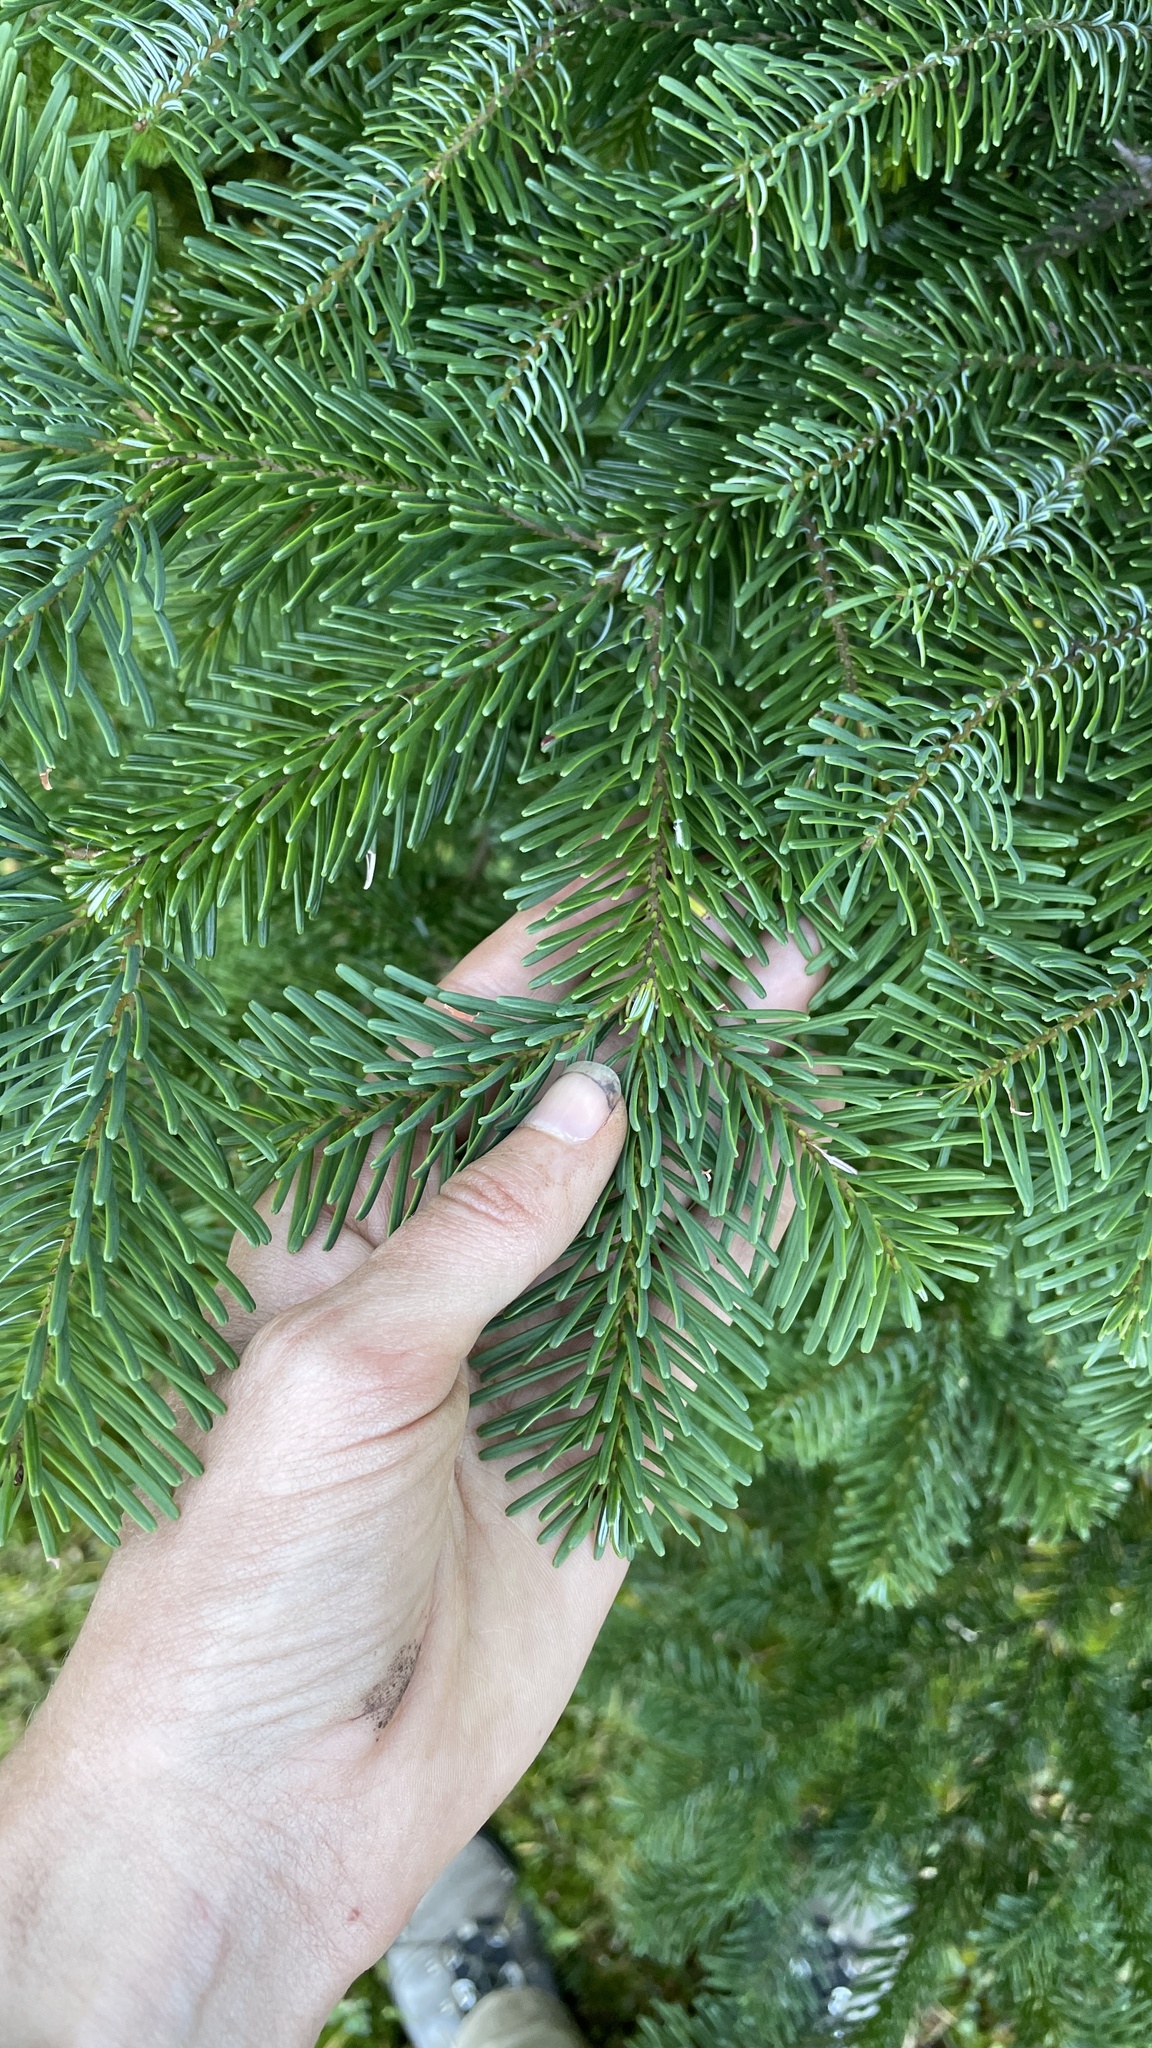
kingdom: Plantae
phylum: Tracheophyta
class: Pinopsida
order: Pinales
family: Pinaceae
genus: Abies
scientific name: Abies amabilis
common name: Pacific silver fir
